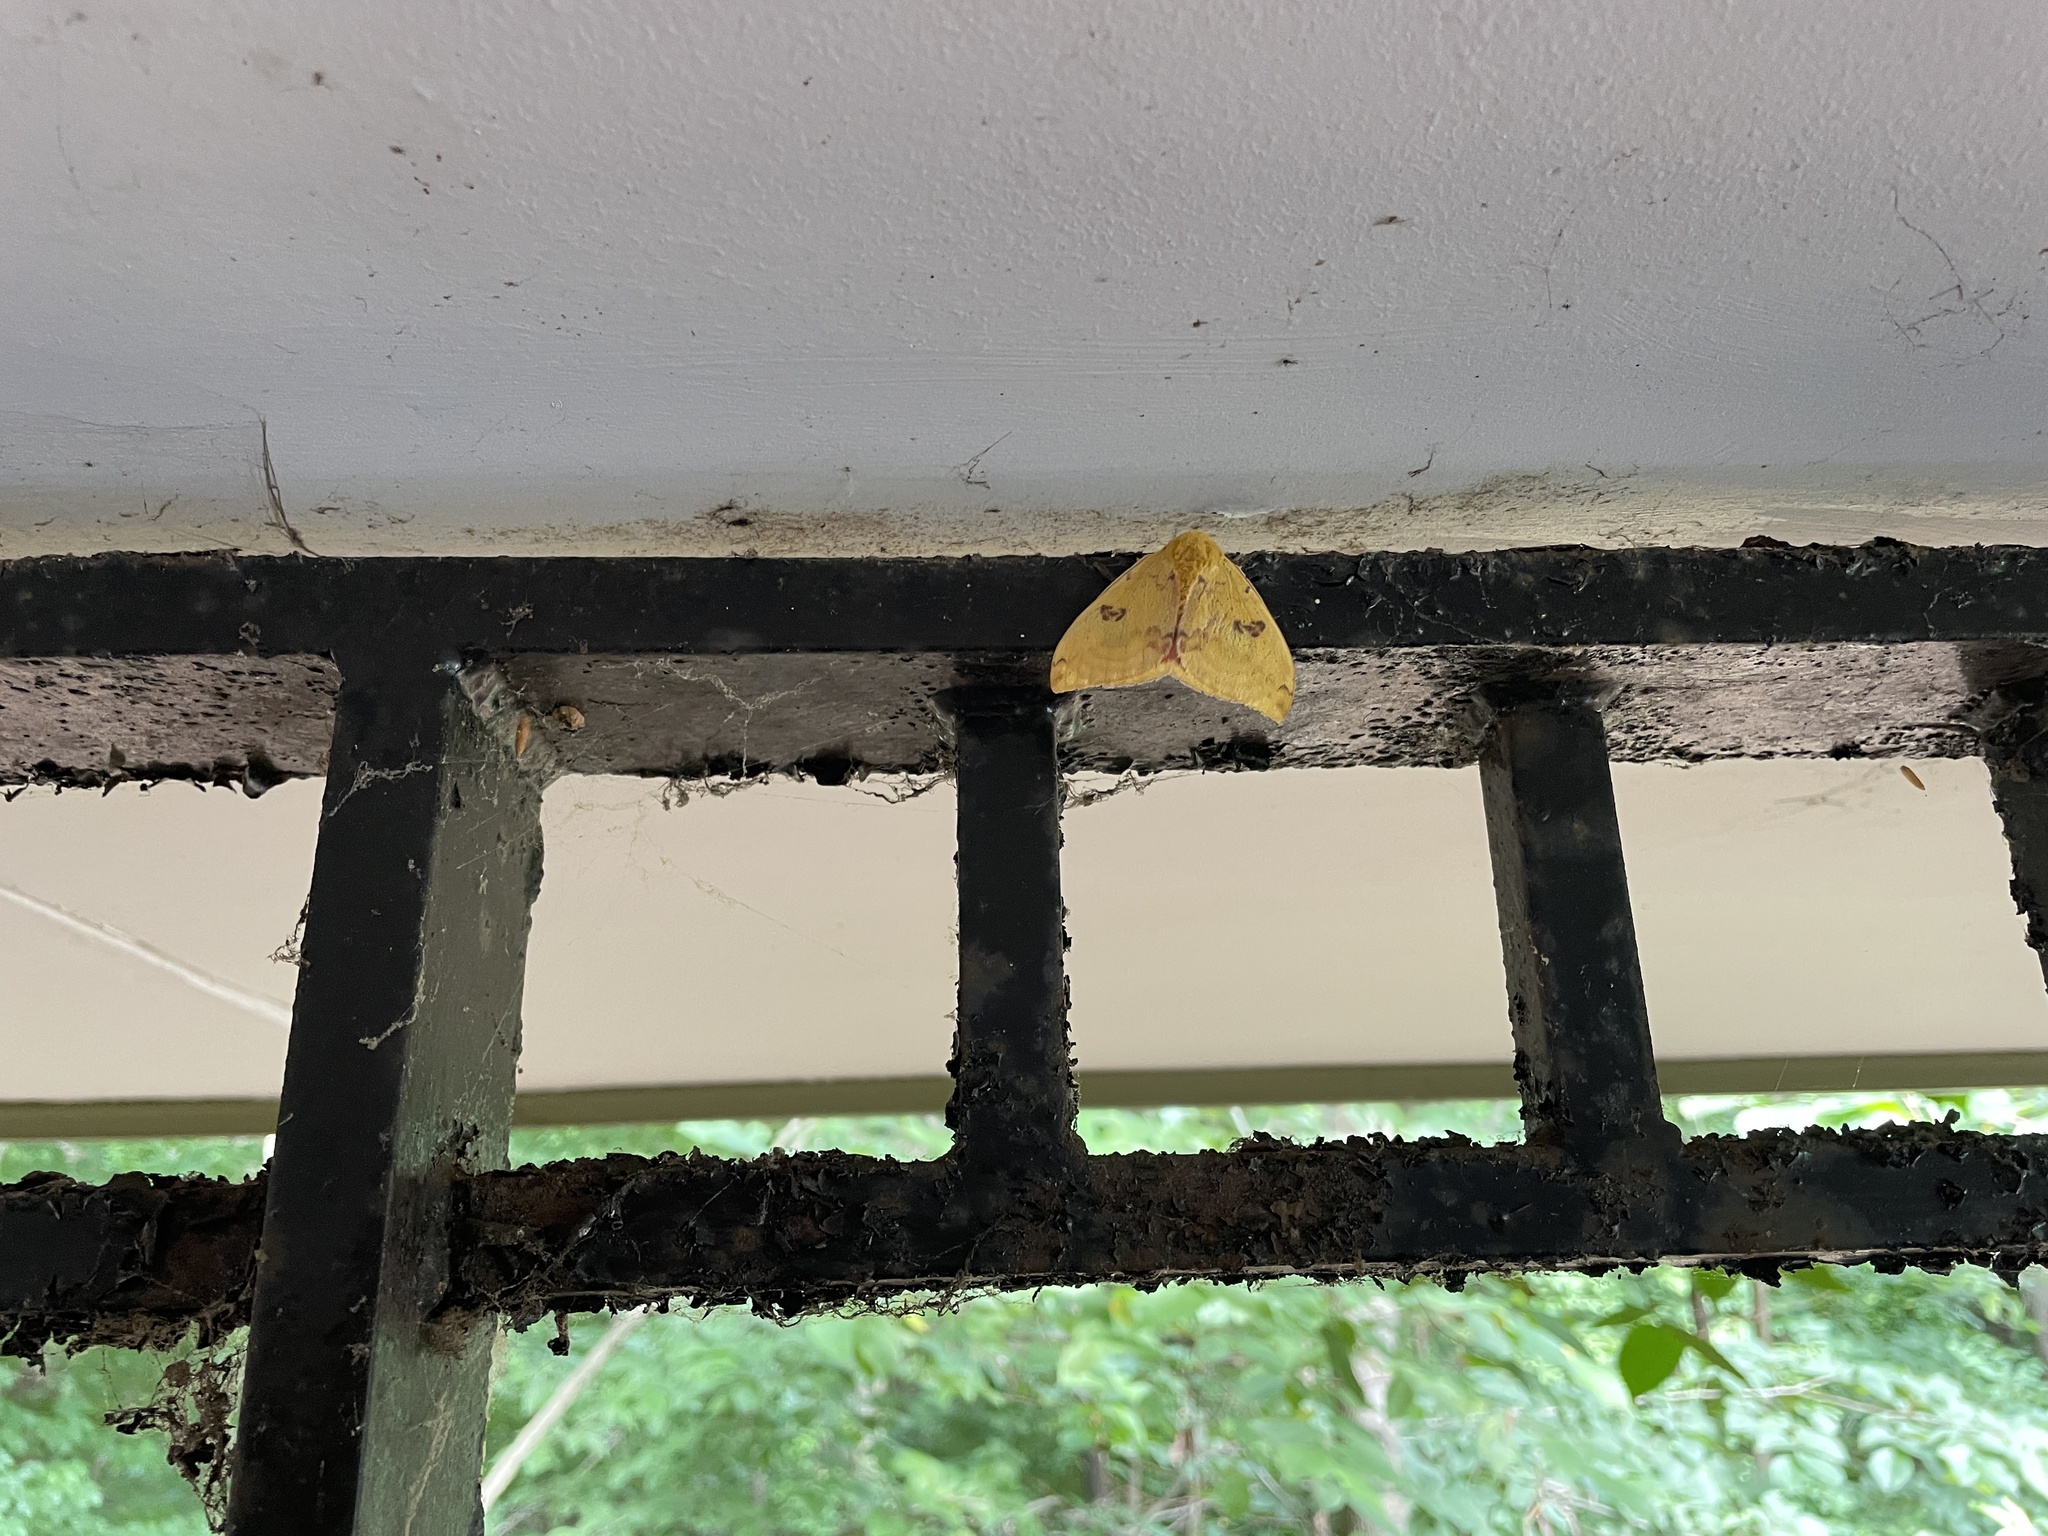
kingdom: Animalia
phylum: Arthropoda
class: Insecta
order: Lepidoptera
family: Saturniidae
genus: Automeris
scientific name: Automeris io
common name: Io moth
